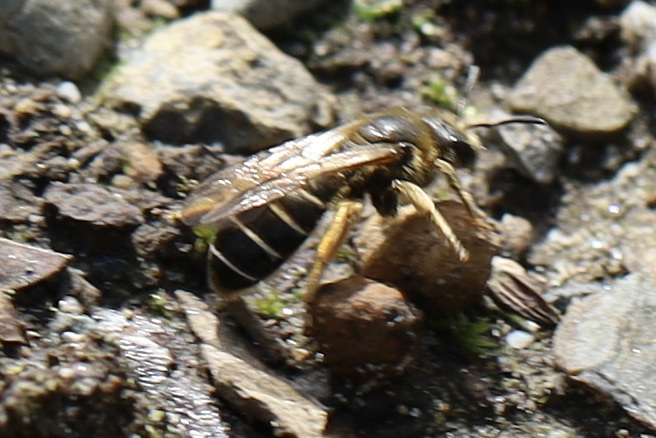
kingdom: Animalia
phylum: Arthropoda
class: Insecta
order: Hymenoptera
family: Halictidae
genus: Halictus
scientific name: Halictus rubicundus
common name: Orange-legged furrow bee
